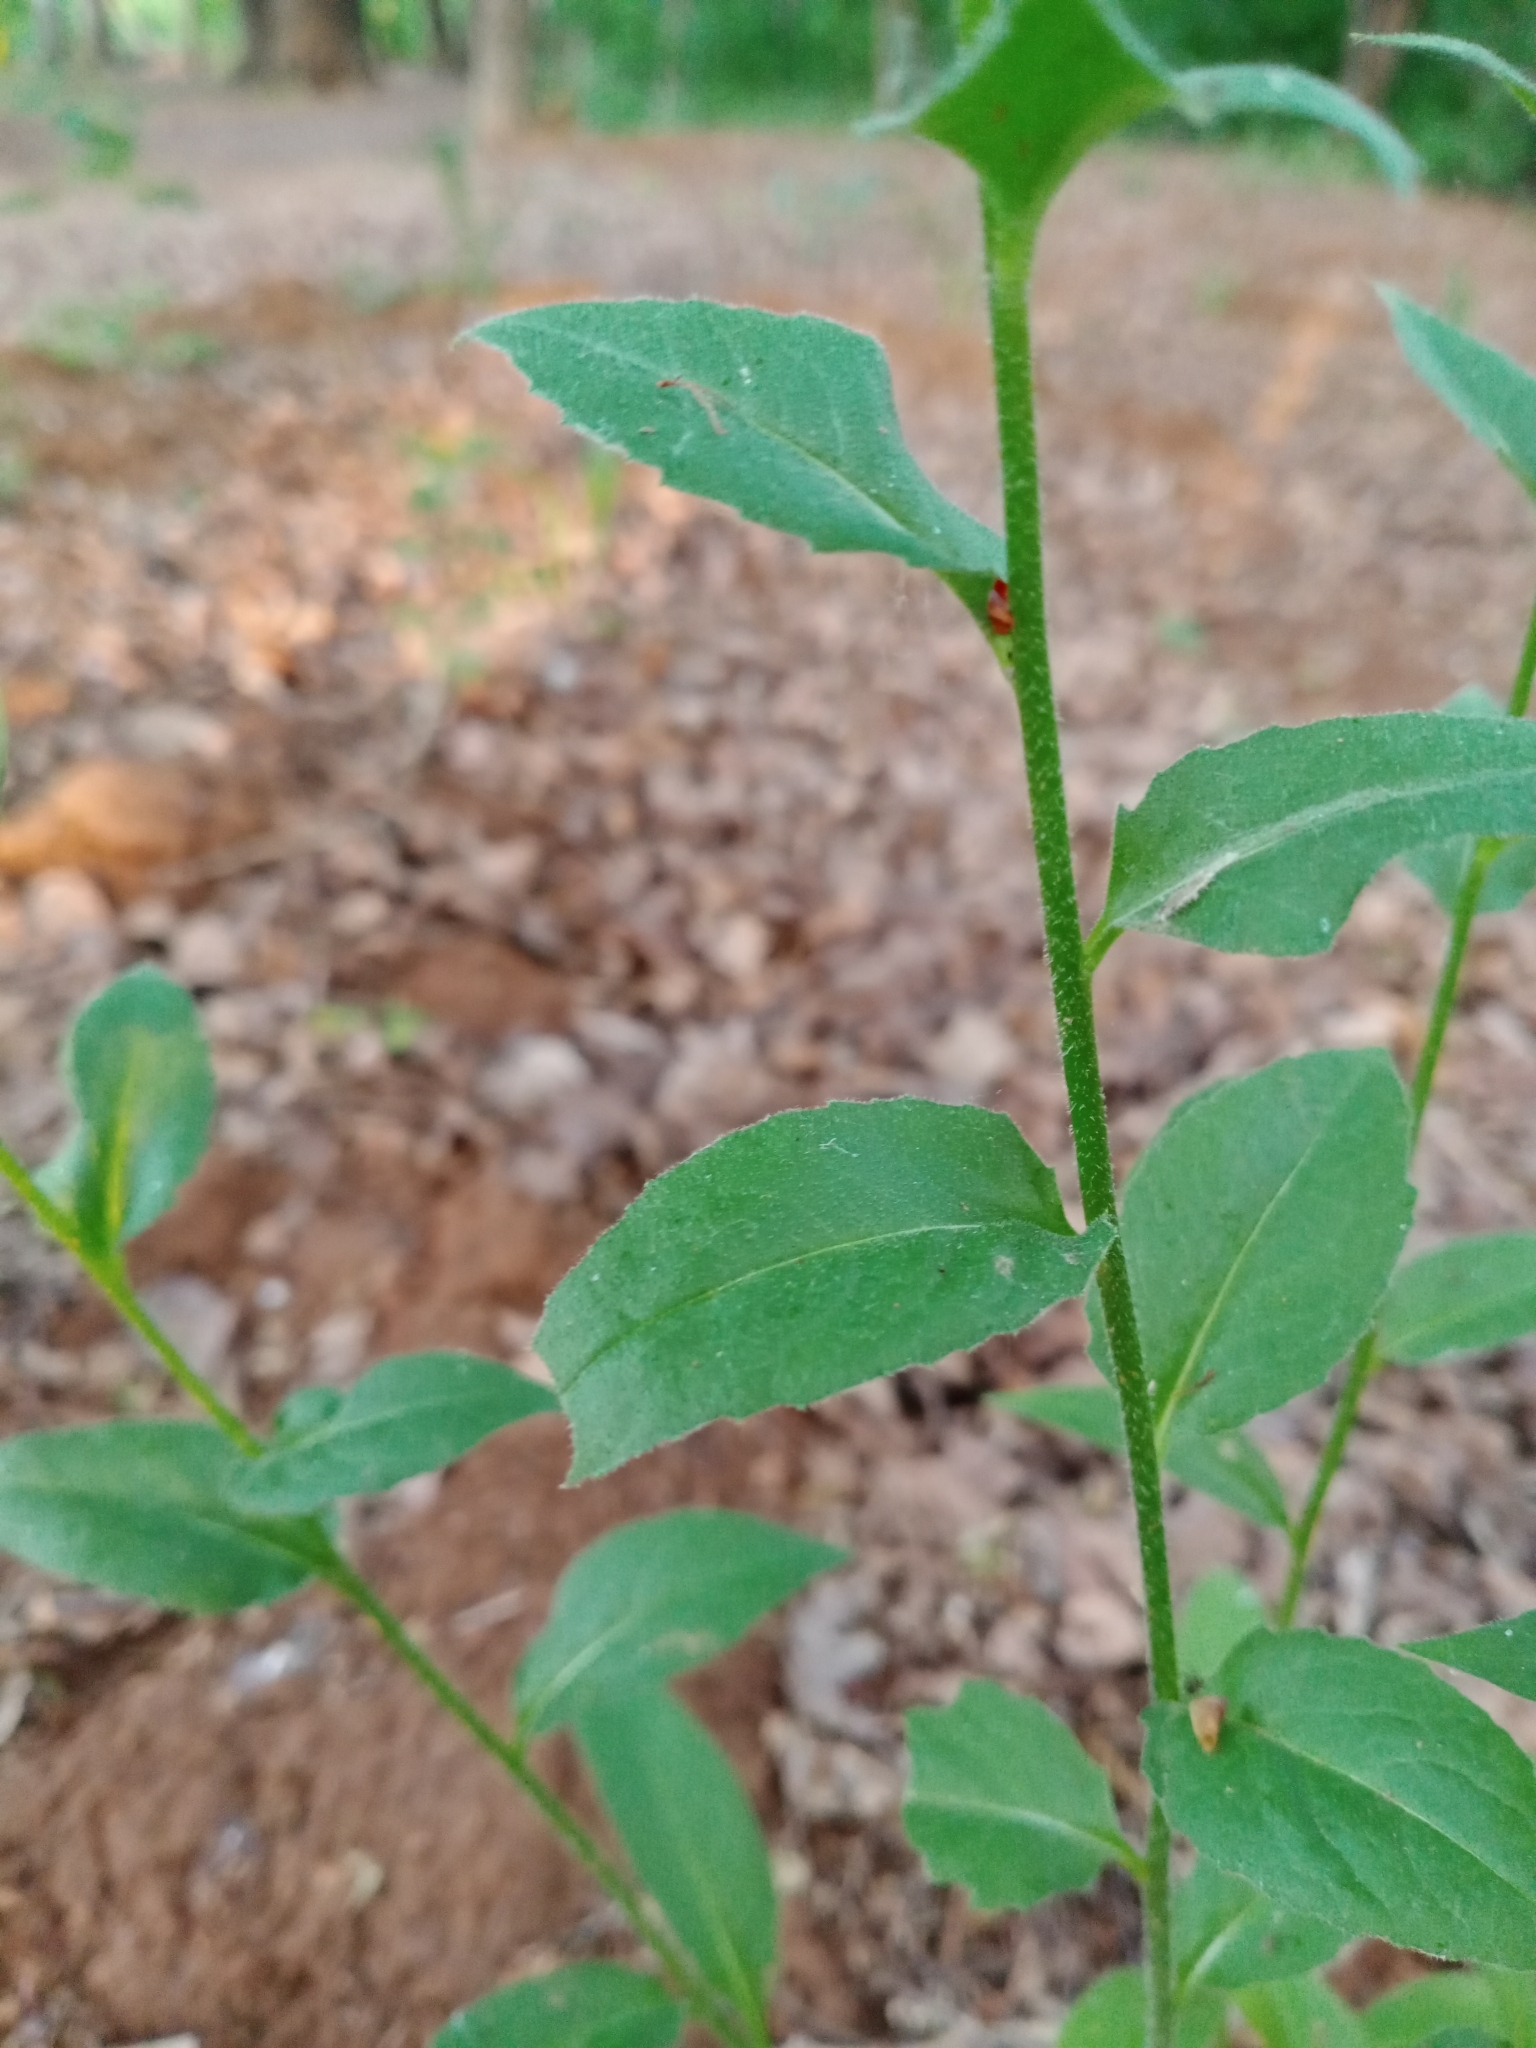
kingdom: Plantae
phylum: Tracheophyta
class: Magnoliopsida
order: Brassicales
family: Brassicaceae
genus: Hesperis
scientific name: Hesperis matronalis
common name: Dame's-violet
